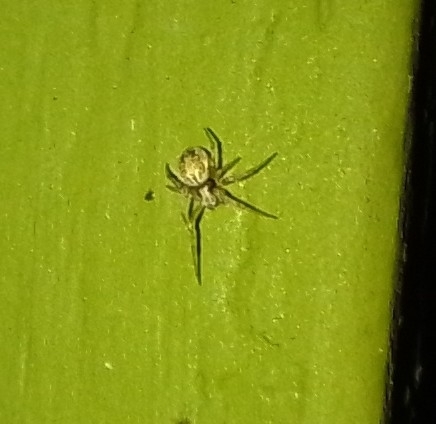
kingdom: Animalia
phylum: Arthropoda
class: Arachnida
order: Araneae
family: Araneidae
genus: Metepeira
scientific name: Metepeira
